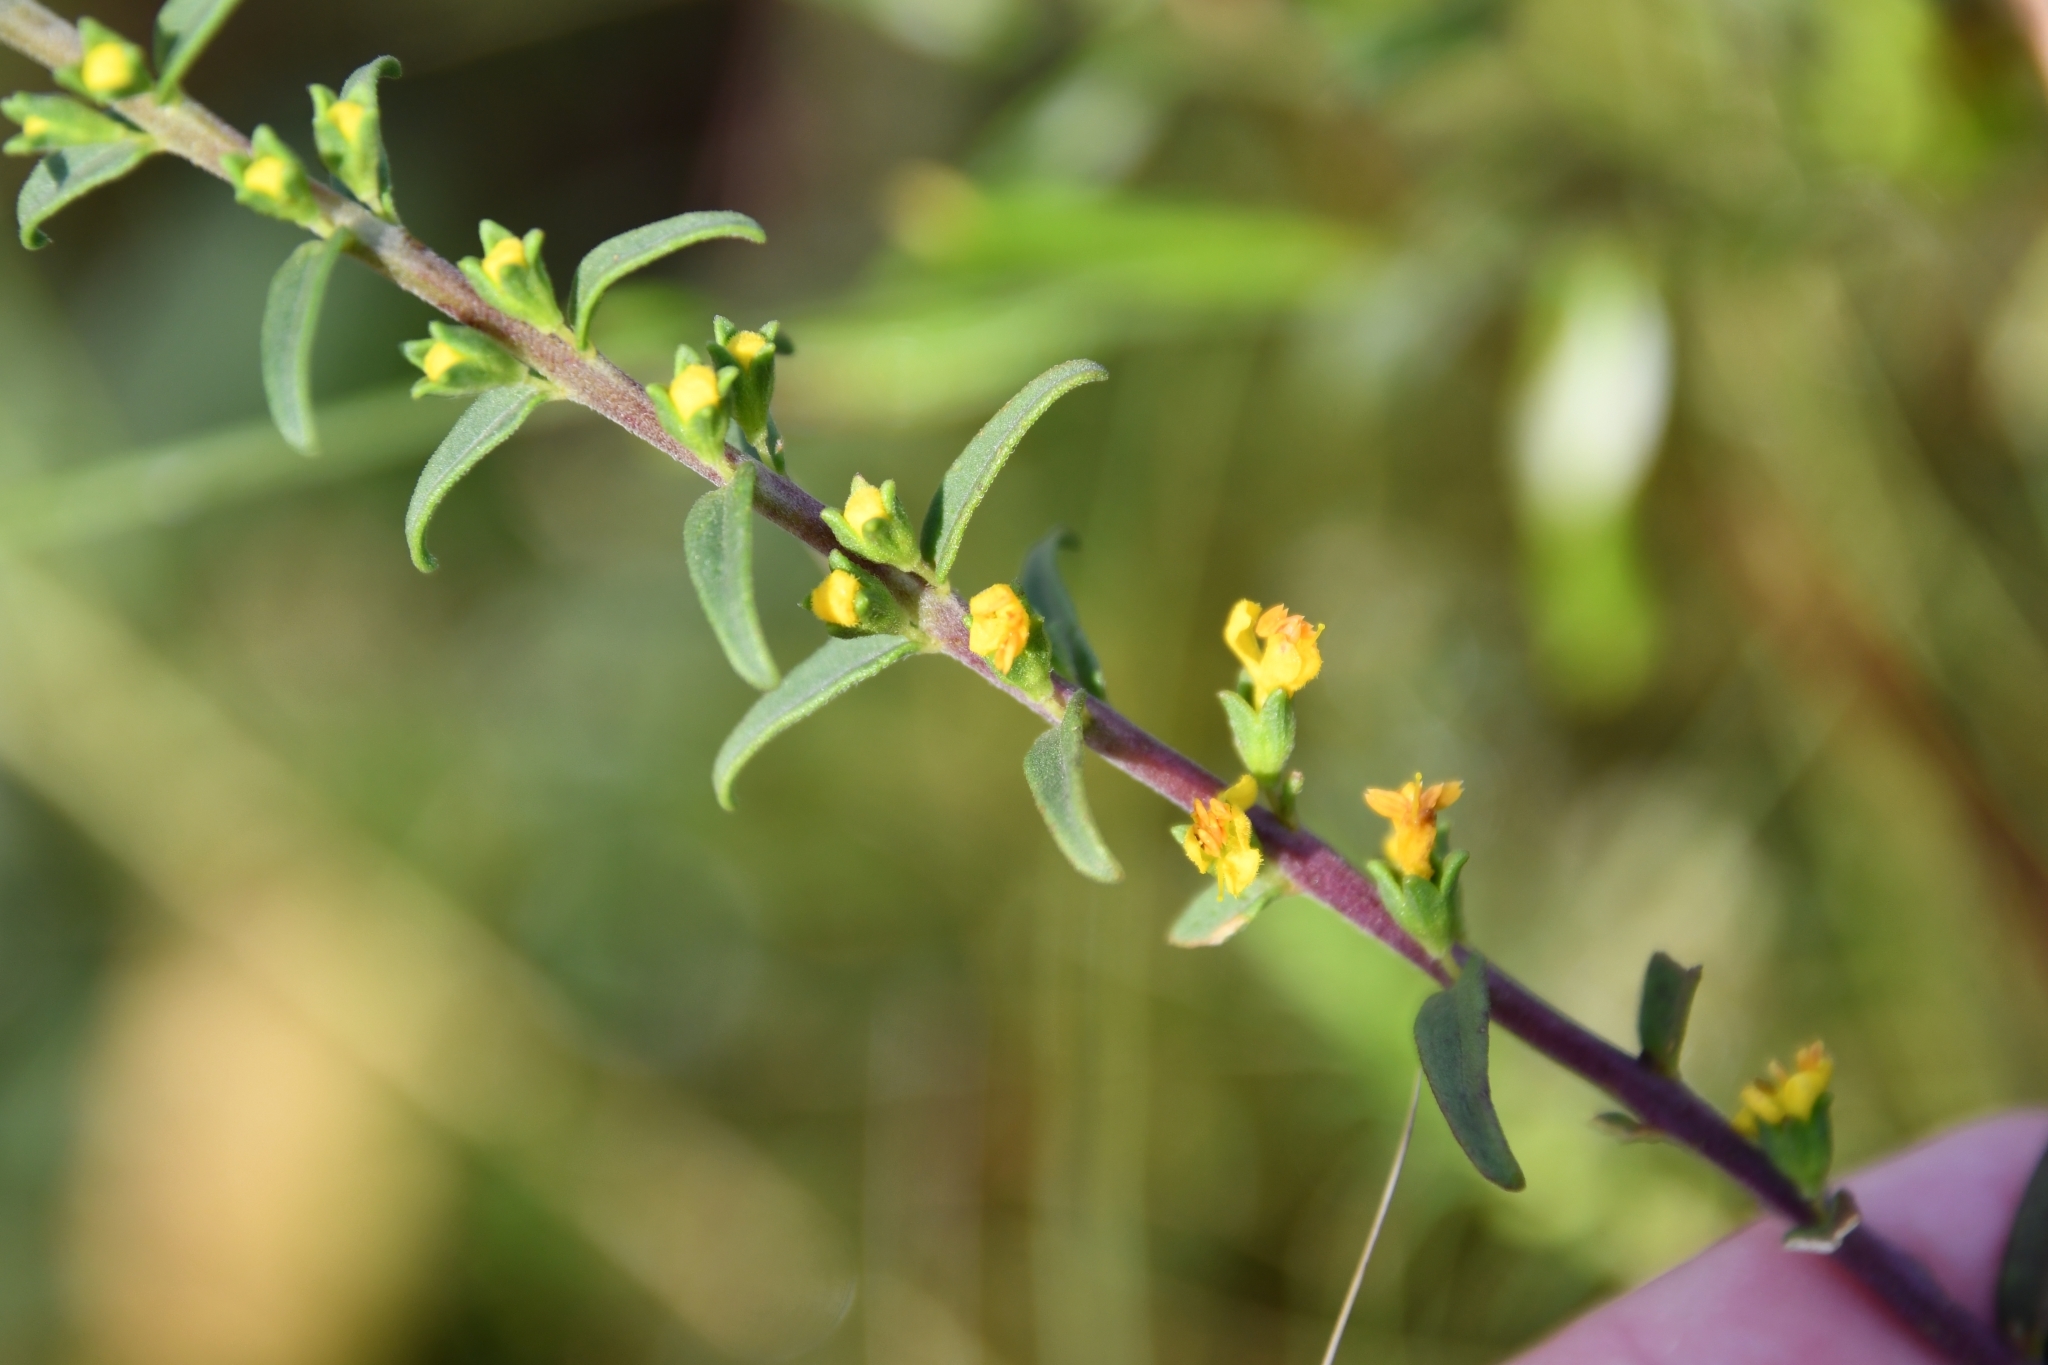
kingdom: Plantae
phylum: Tracheophyta
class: Magnoliopsida
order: Lamiales
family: Orobanchaceae
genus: Odontites
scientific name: Odontites luteus
